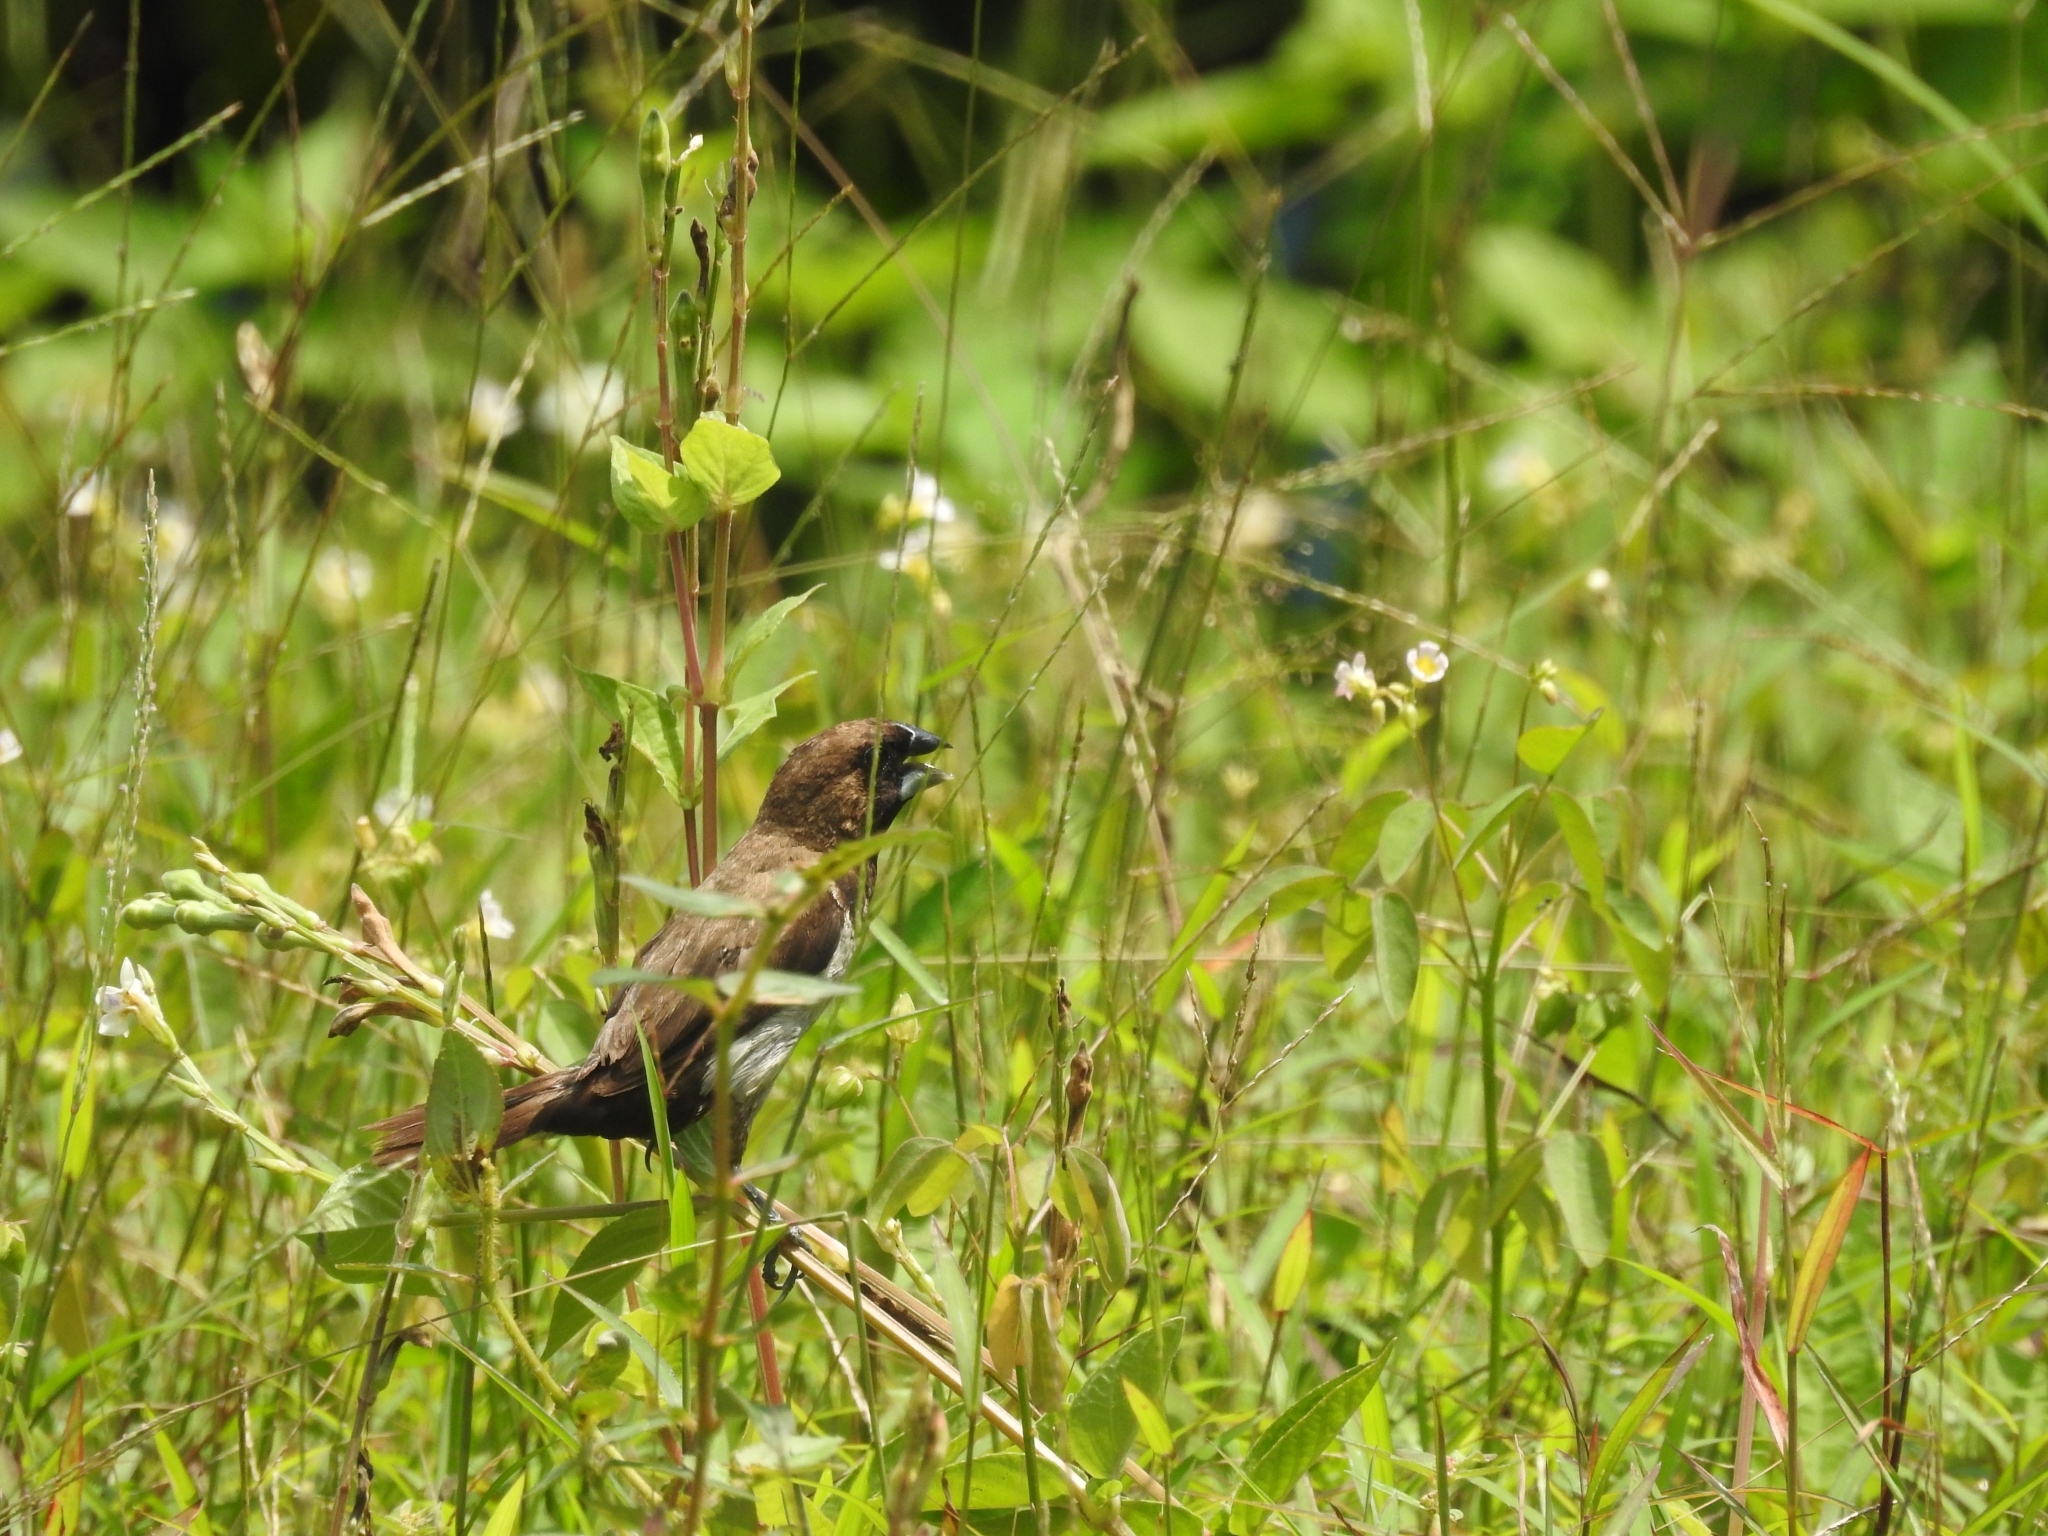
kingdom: Animalia
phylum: Chordata
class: Aves
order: Passeriformes
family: Estrildidae
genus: Lonchura
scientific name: Lonchura leucogastroides
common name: Javan munia
